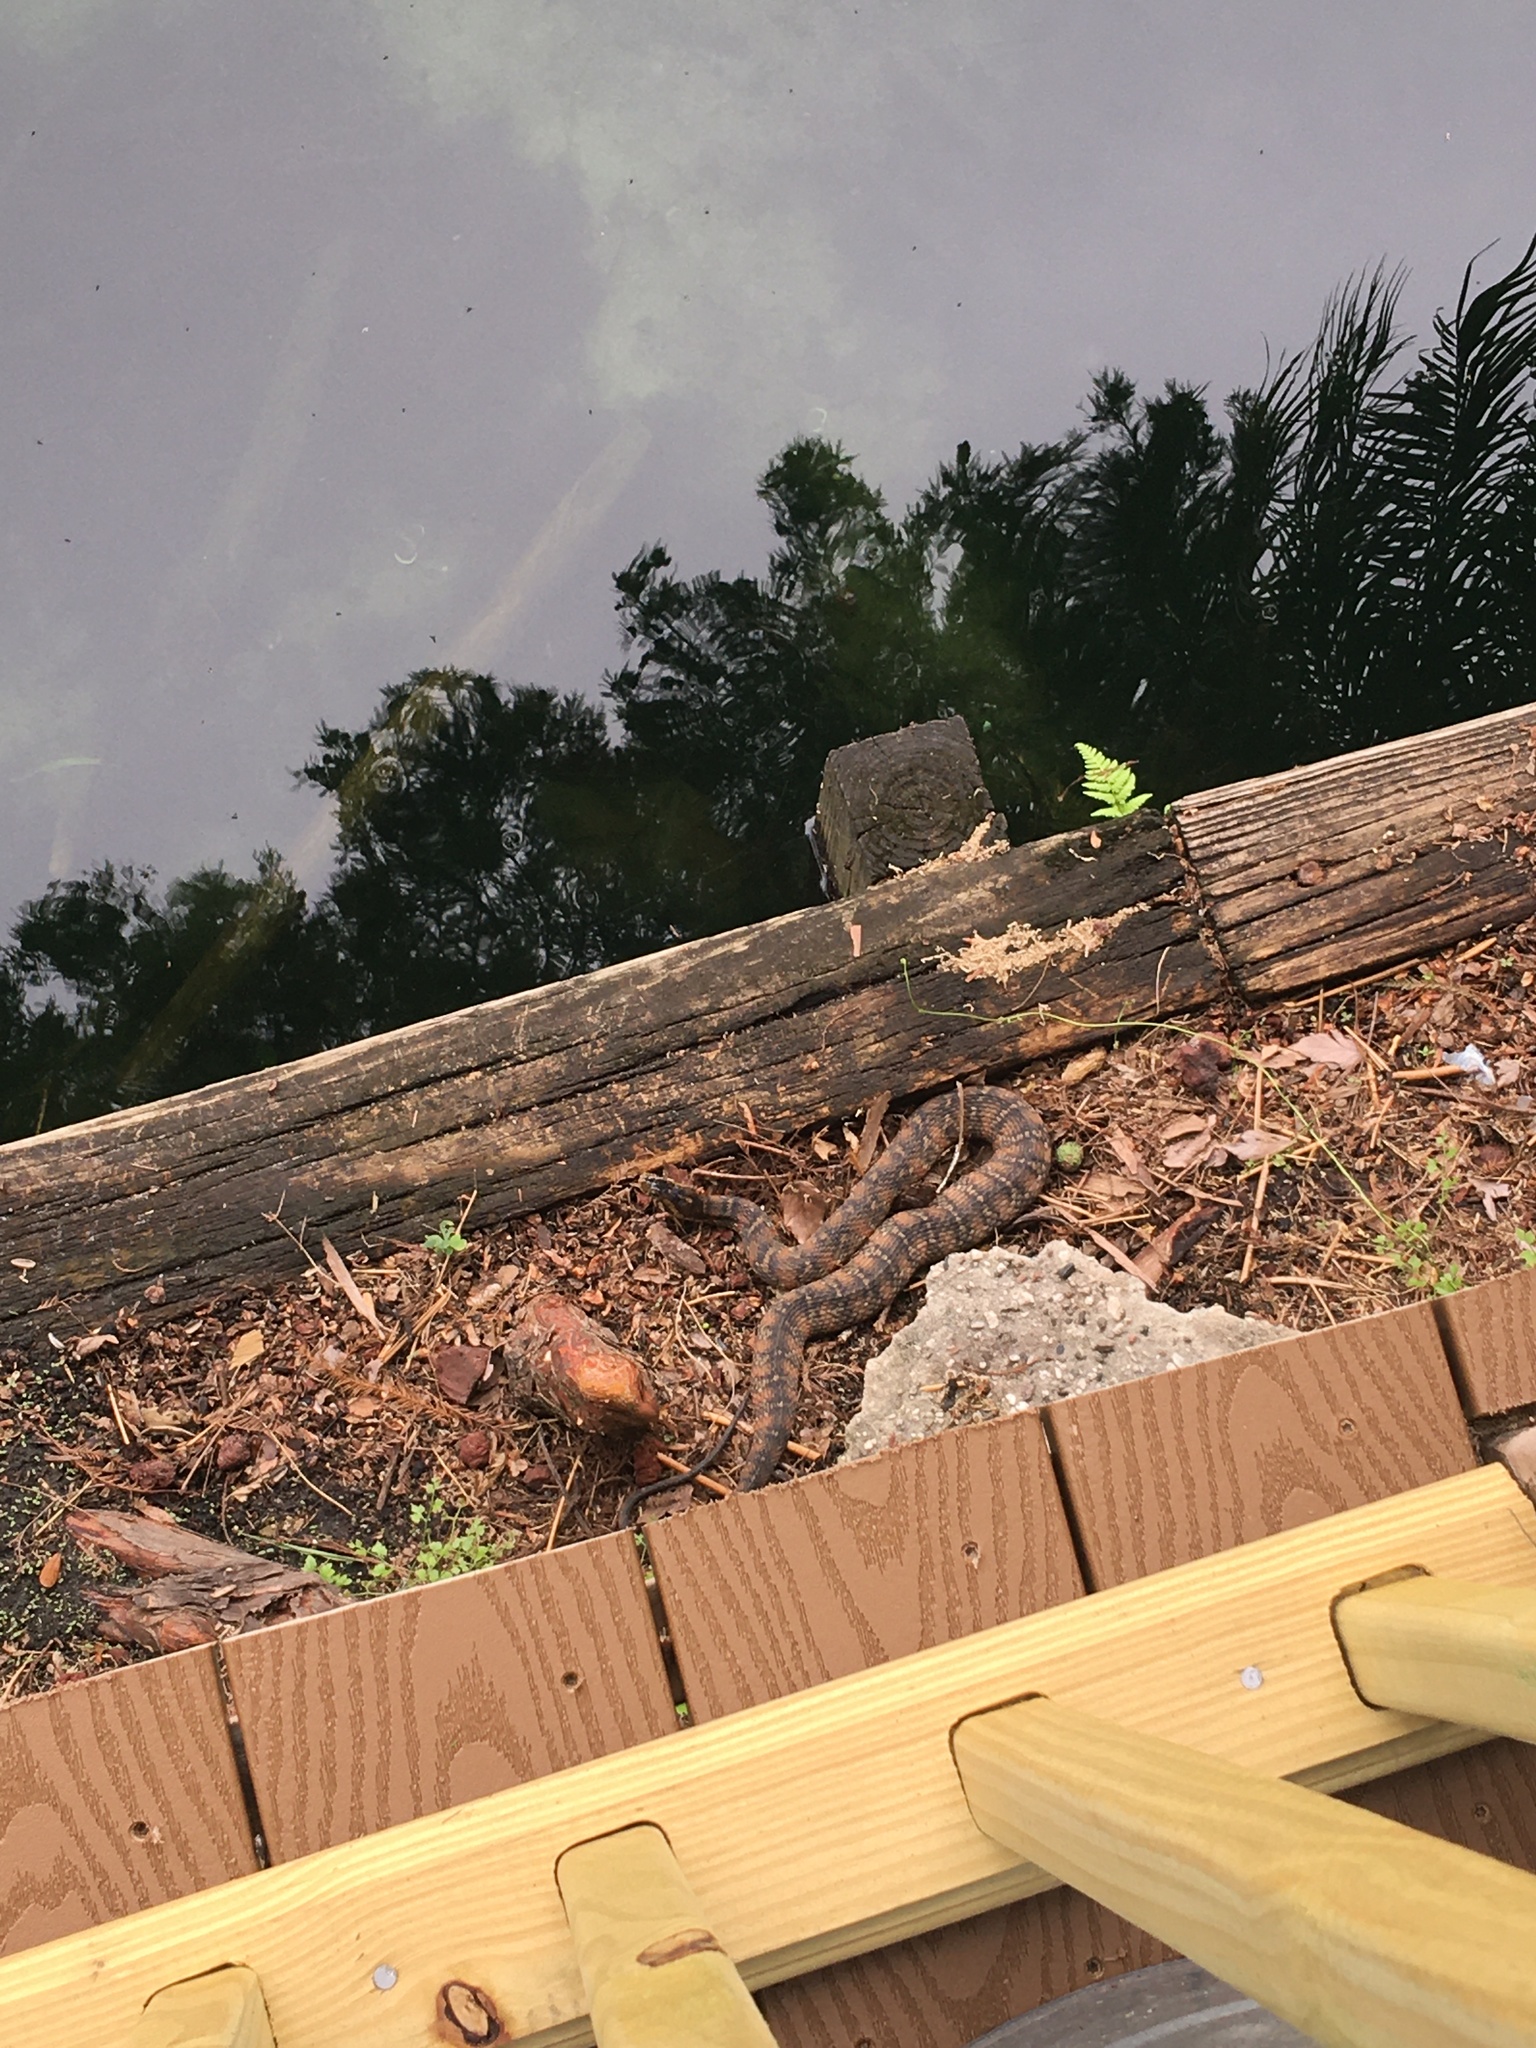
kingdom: Animalia
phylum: Chordata
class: Squamata
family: Colubridae
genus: Nerodia
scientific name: Nerodia fasciata
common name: Southern water snake
